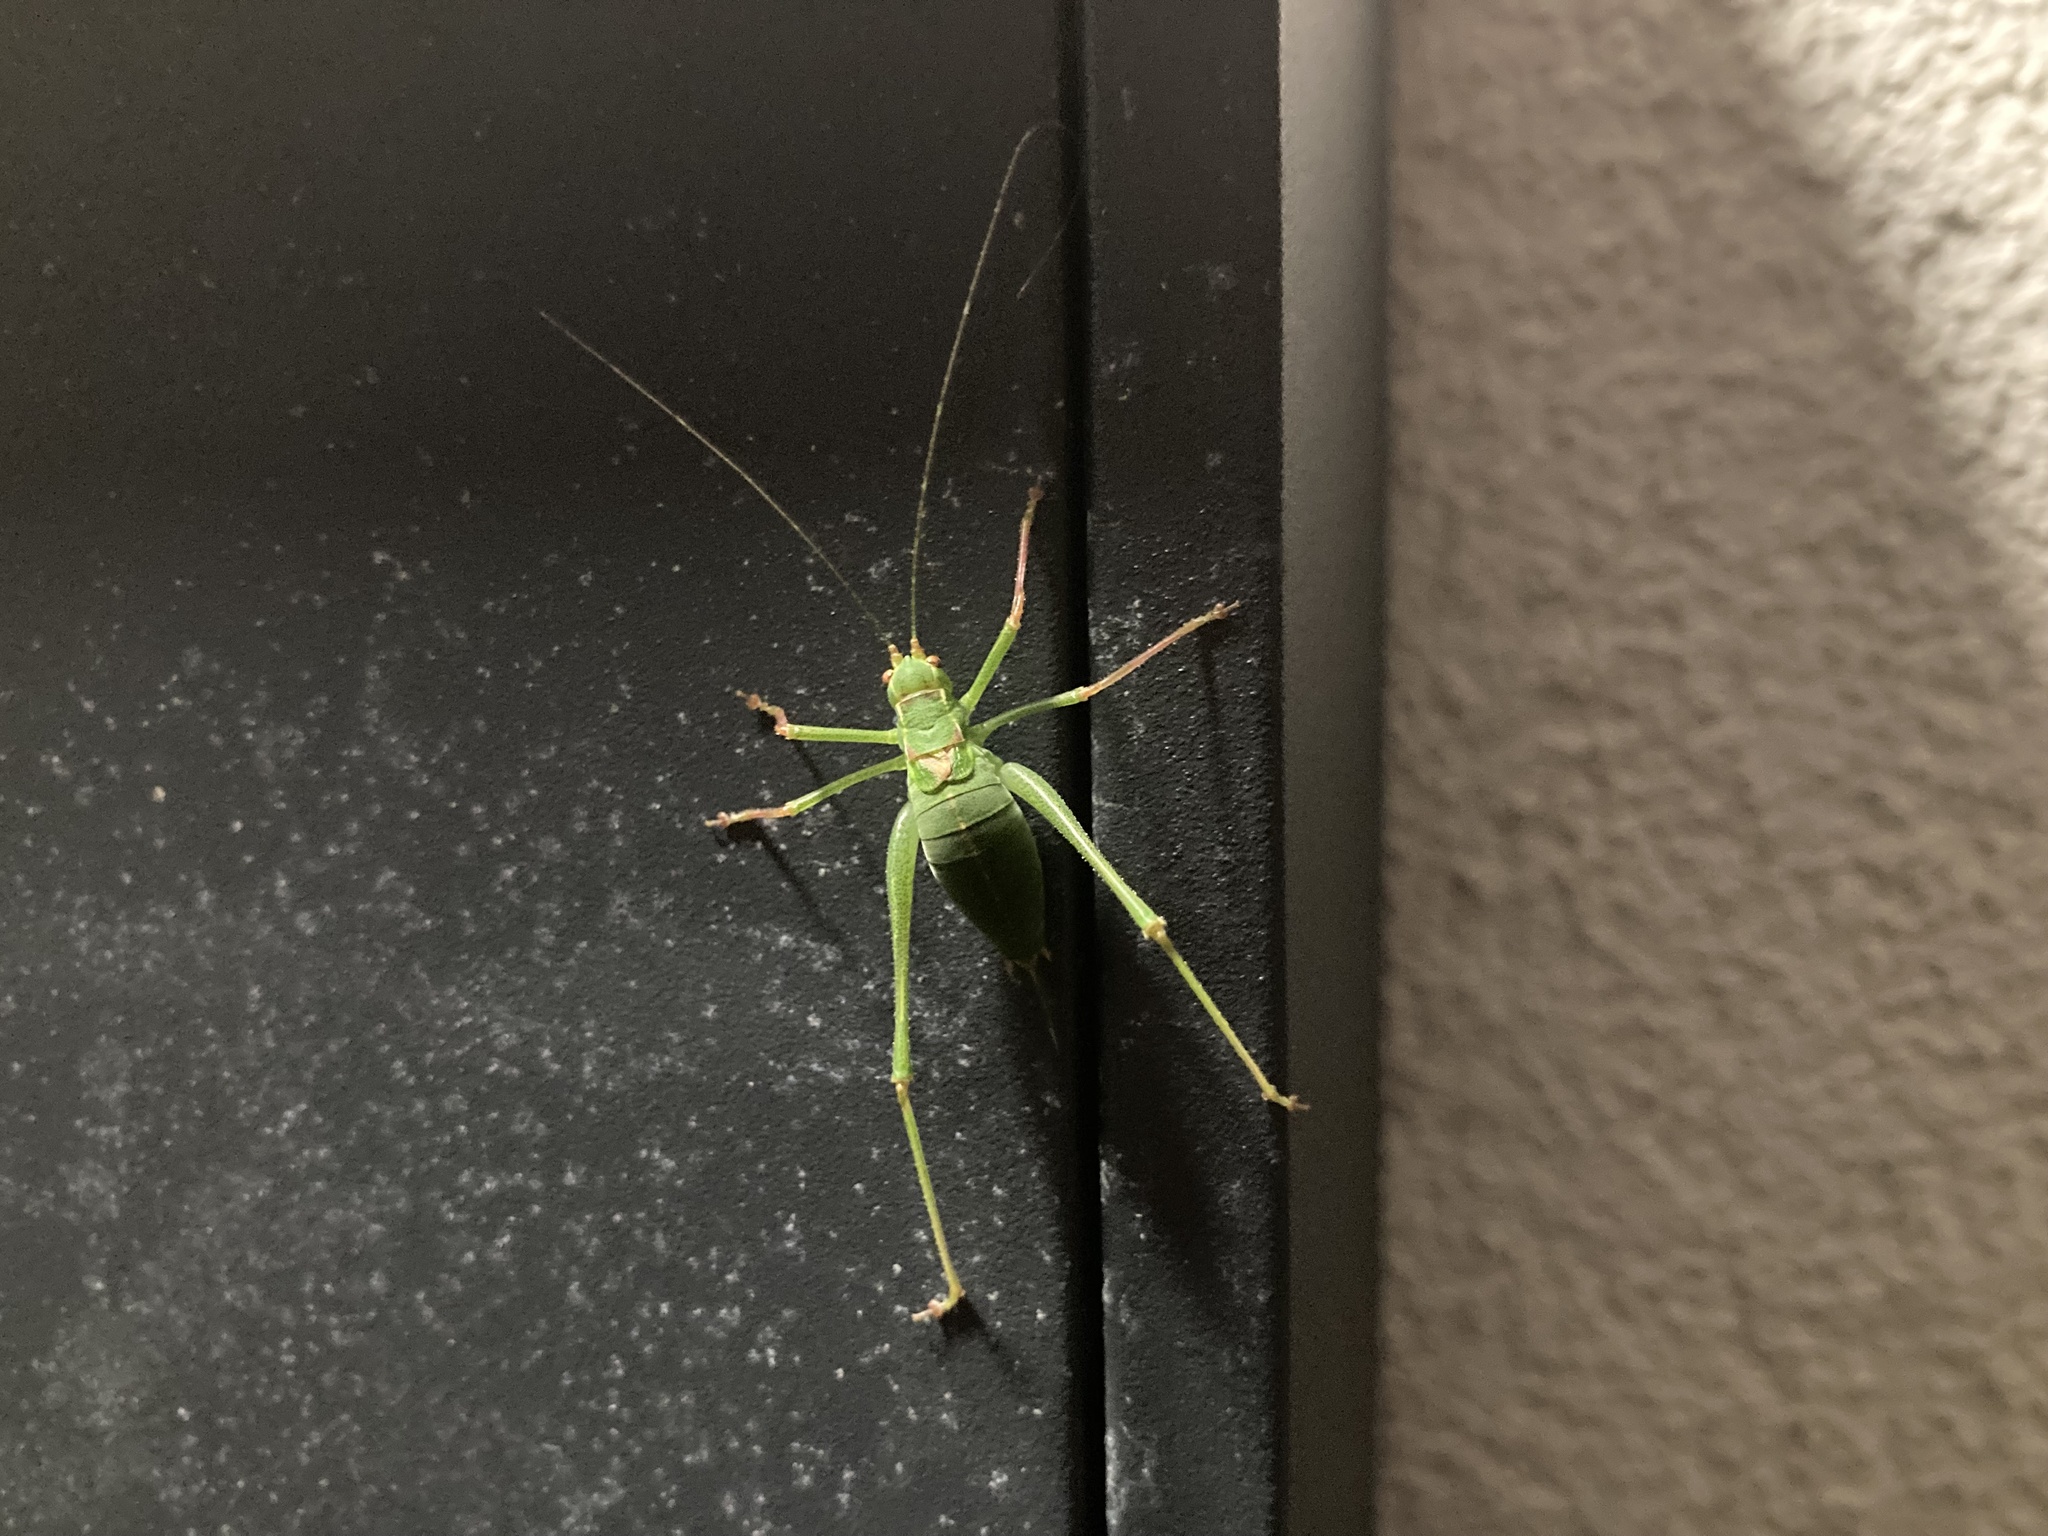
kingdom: Animalia
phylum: Arthropoda
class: Insecta
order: Orthoptera
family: Tettigoniidae
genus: Leptophyes
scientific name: Leptophyes punctatissima
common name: Speckled bush-cricket
